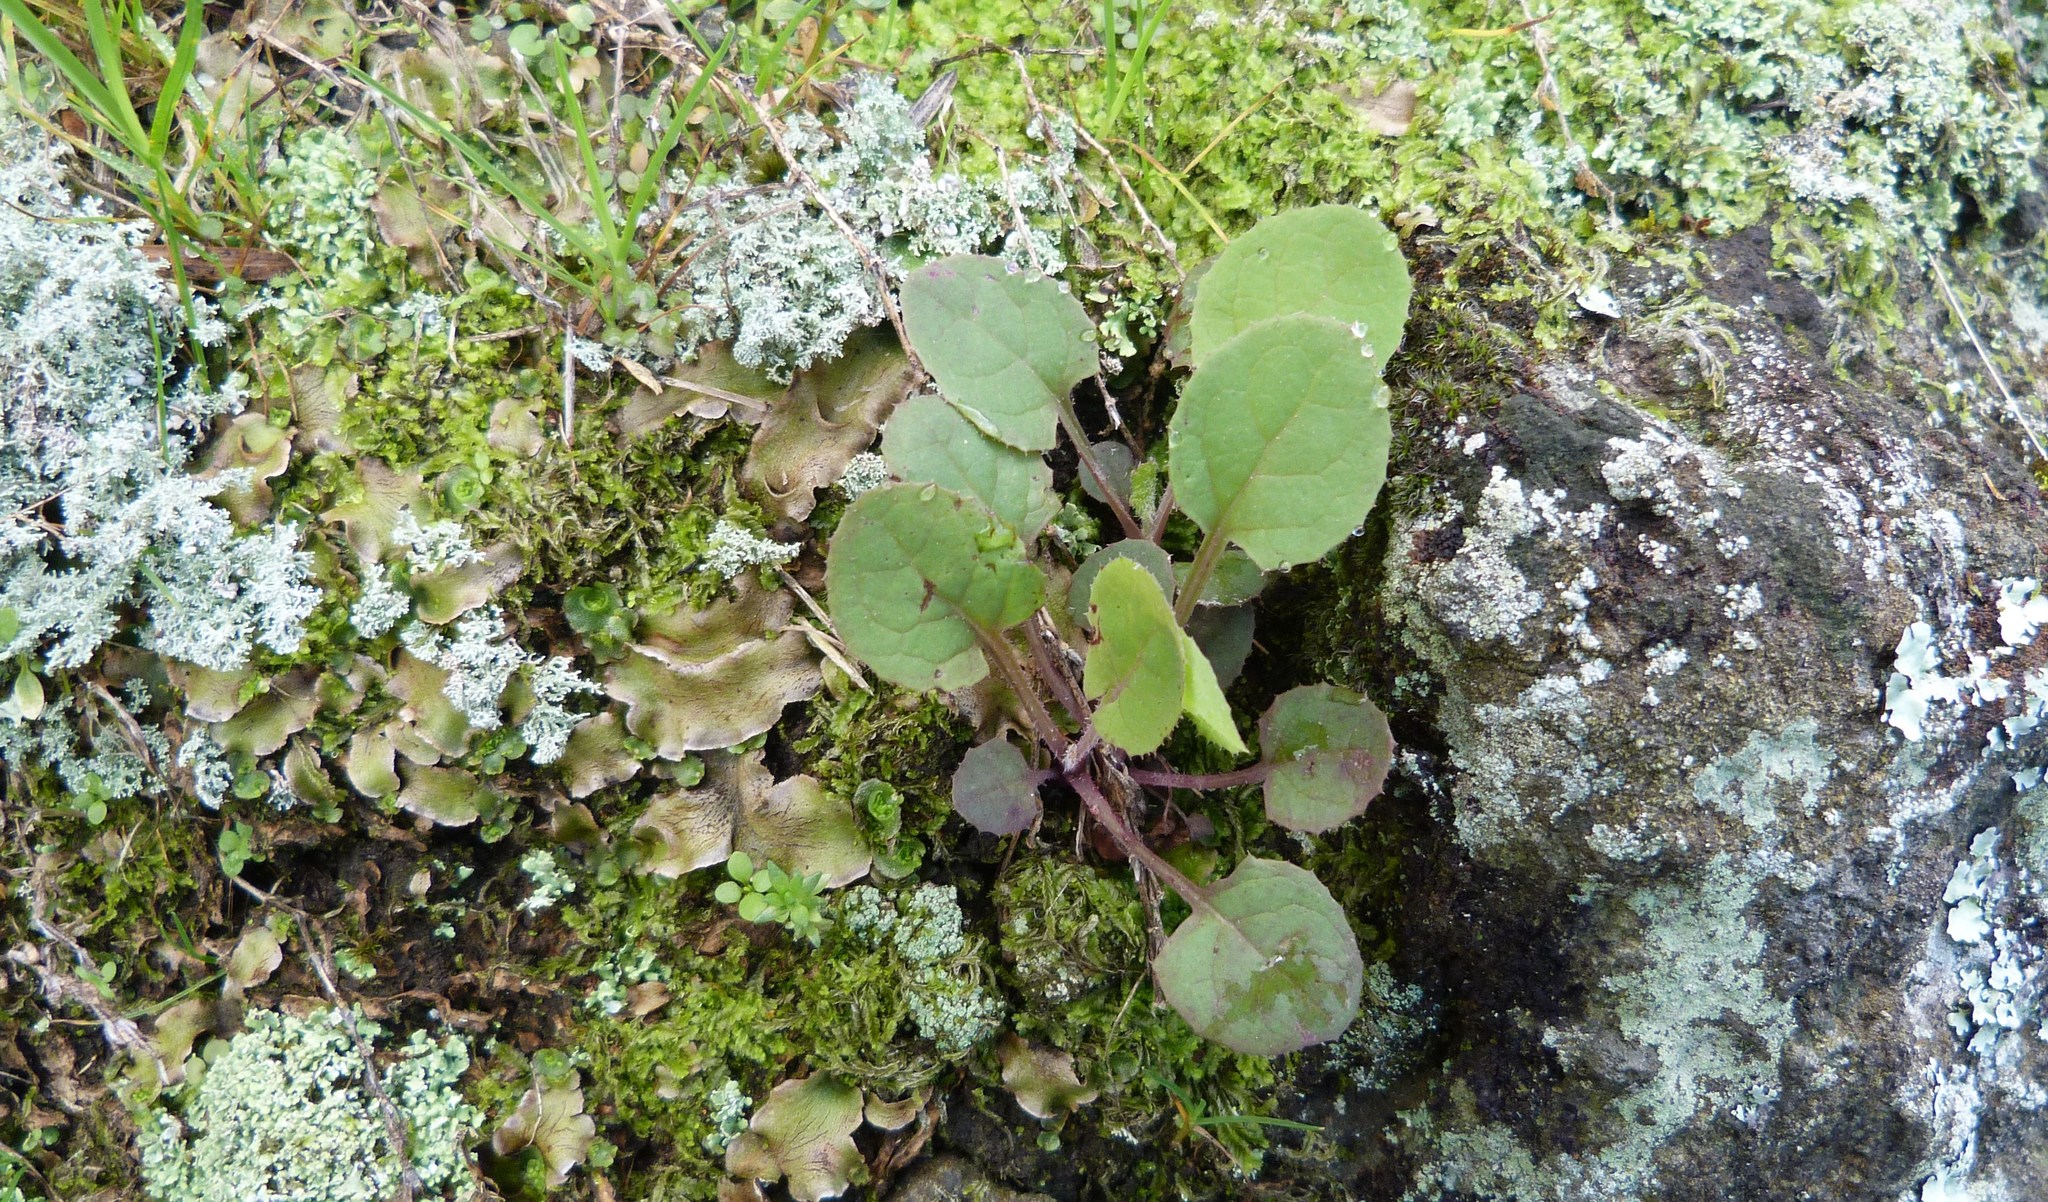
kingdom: Plantae
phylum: Tracheophyta
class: Magnoliopsida
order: Asterales
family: Asteraceae
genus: Sonchus
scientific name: Sonchus oleraceus
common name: Common sowthistle
